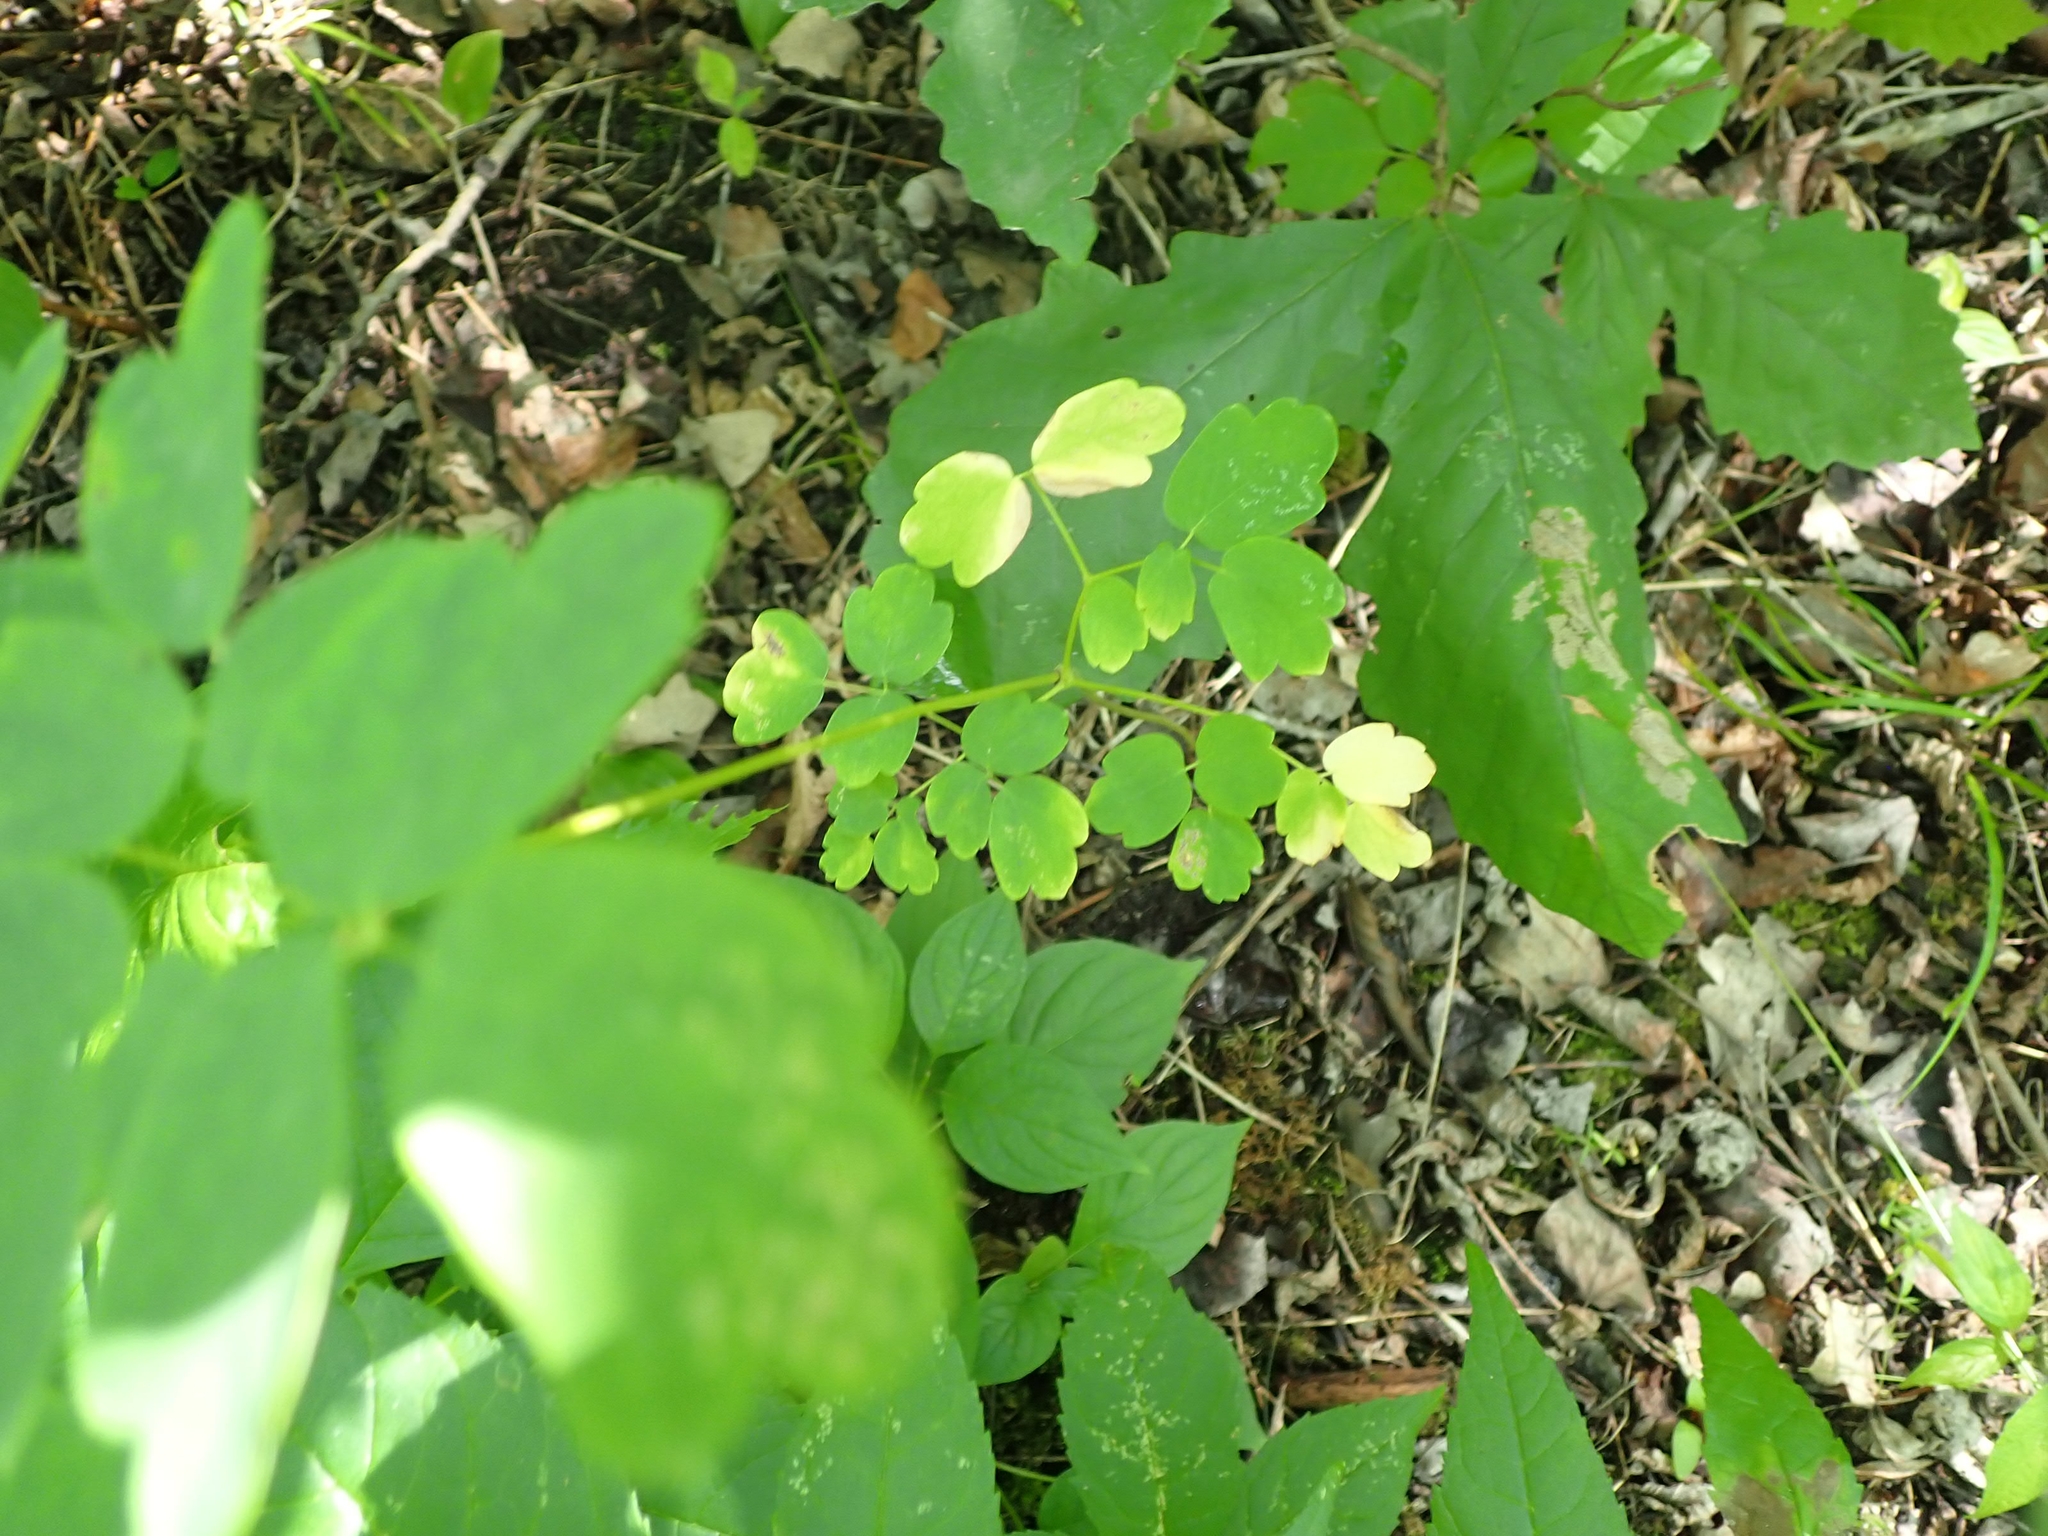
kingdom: Plantae
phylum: Tracheophyta
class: Magnoliopsida
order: Ranunculales
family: Ranunculaceae
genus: Thalictrum
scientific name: Thalictrum venulosum
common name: Early meadow-rue
